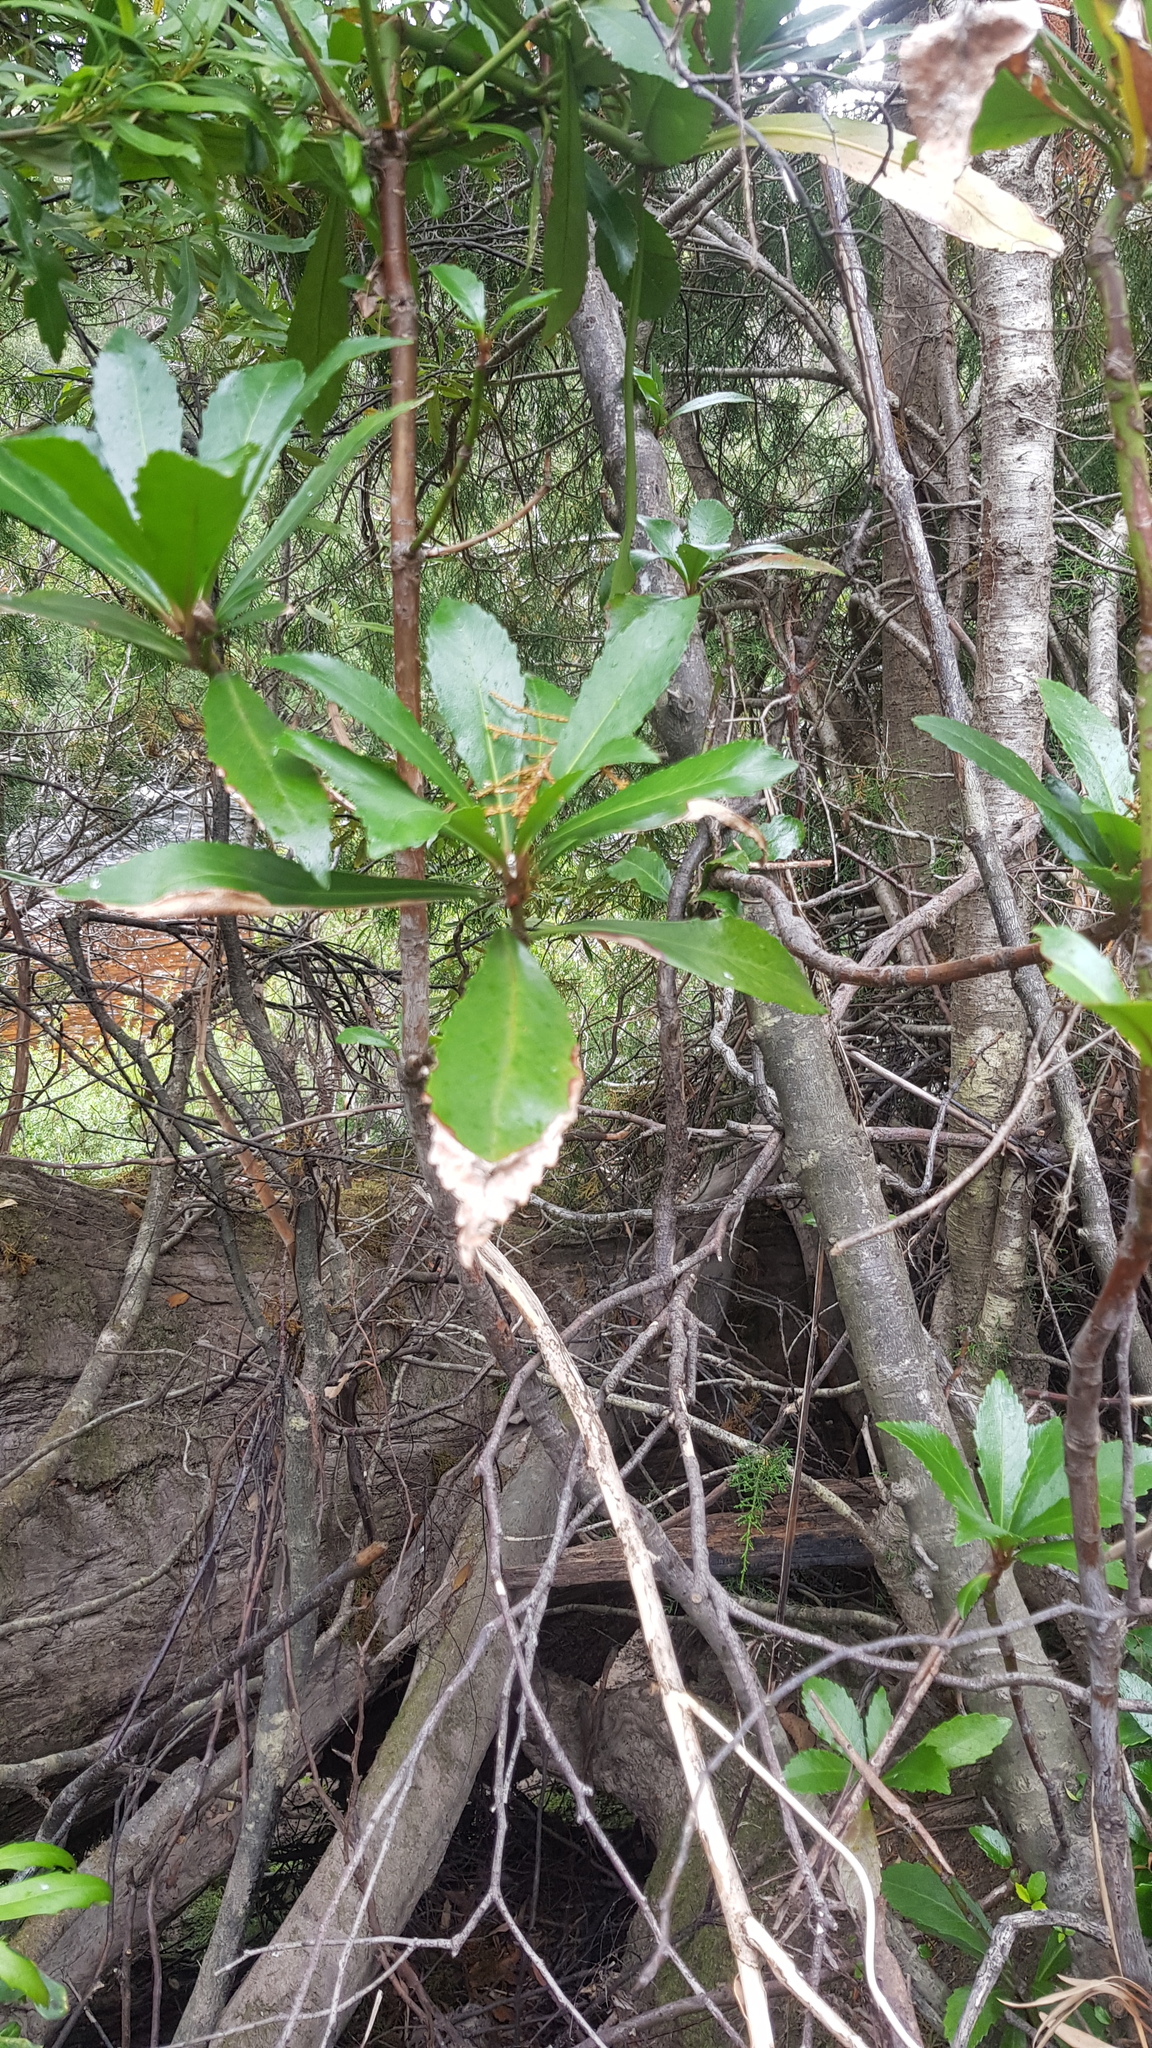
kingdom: Plantae
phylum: Tracheophyta
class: Magnoliopsida
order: Escalloniales
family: Escalloniaceae
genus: Anopterus
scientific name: Anopterus glandulosus
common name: Tasmanian-laurel
